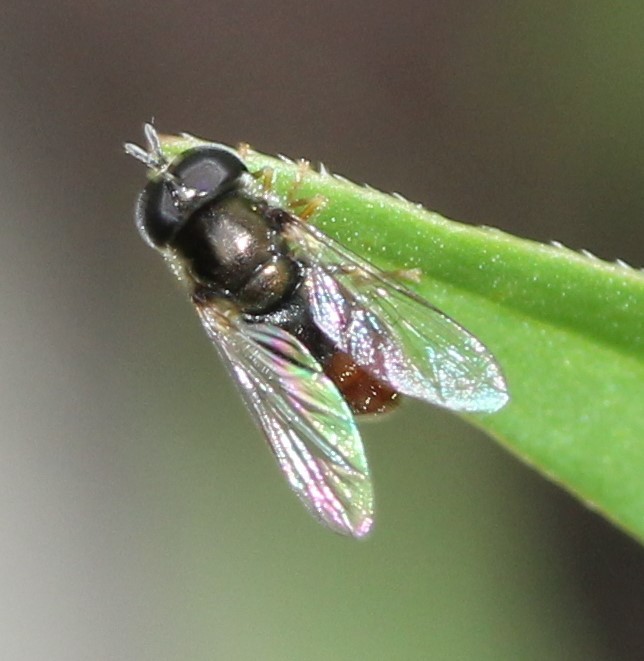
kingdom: Animalia
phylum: Arthropoda
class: Insecta
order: Diptera
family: Syrphidae
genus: Paragus
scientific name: Paragus haemorrhous
